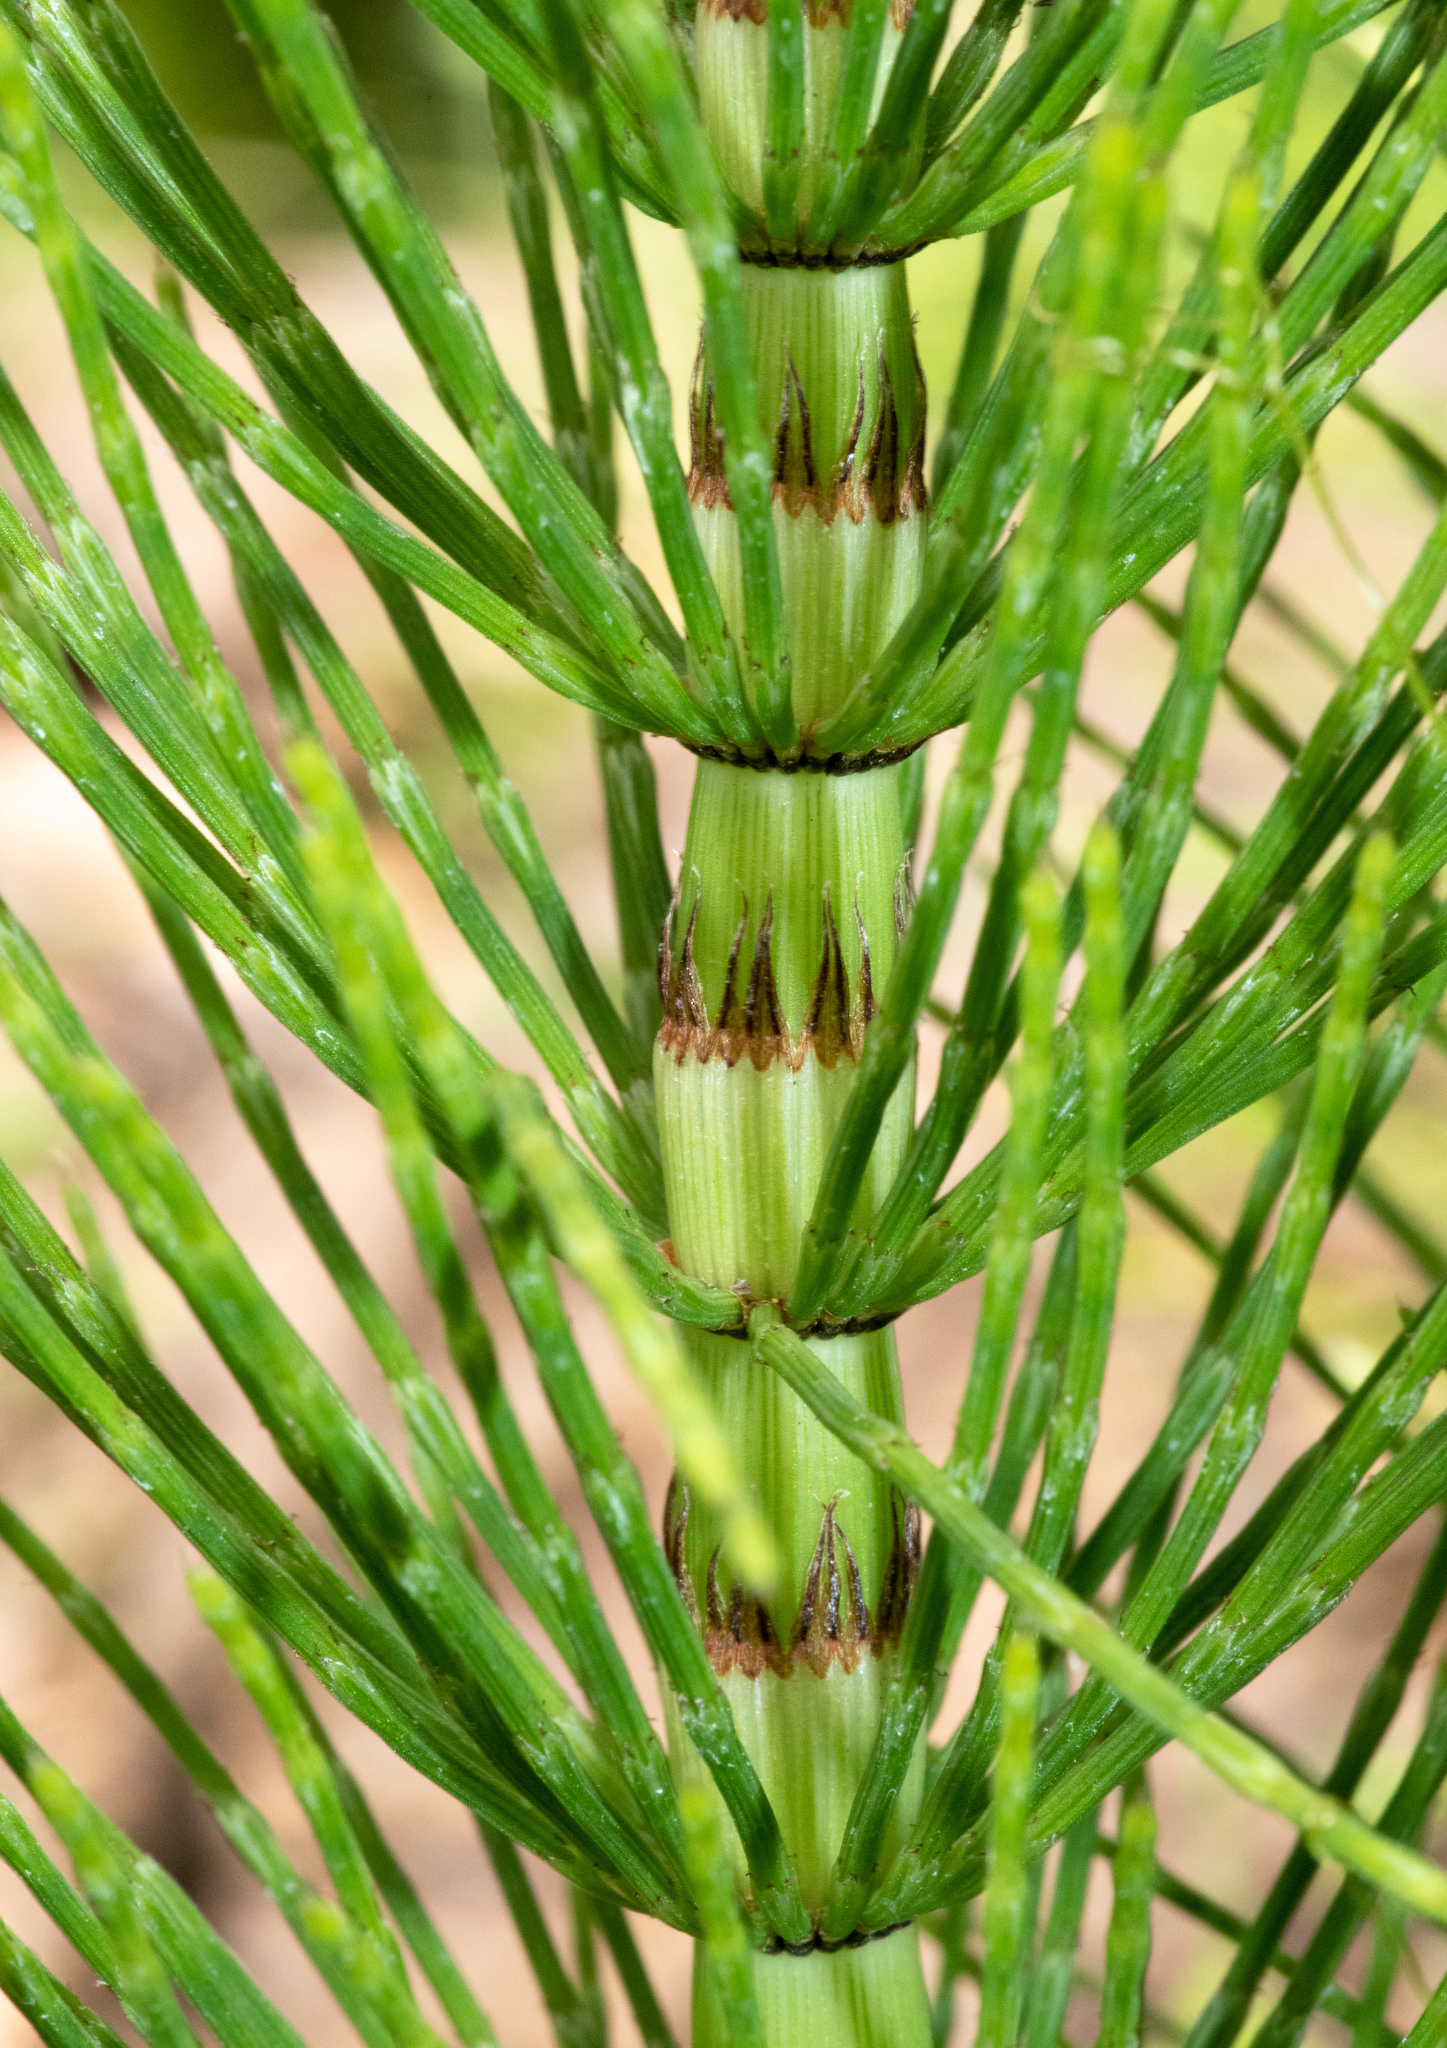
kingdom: Plantae
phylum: Tracheophyta
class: Polypodiopsida
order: Equisetales
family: Equisetaceae
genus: Equisetum
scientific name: Equisetum telmateia
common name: Great horsetail
